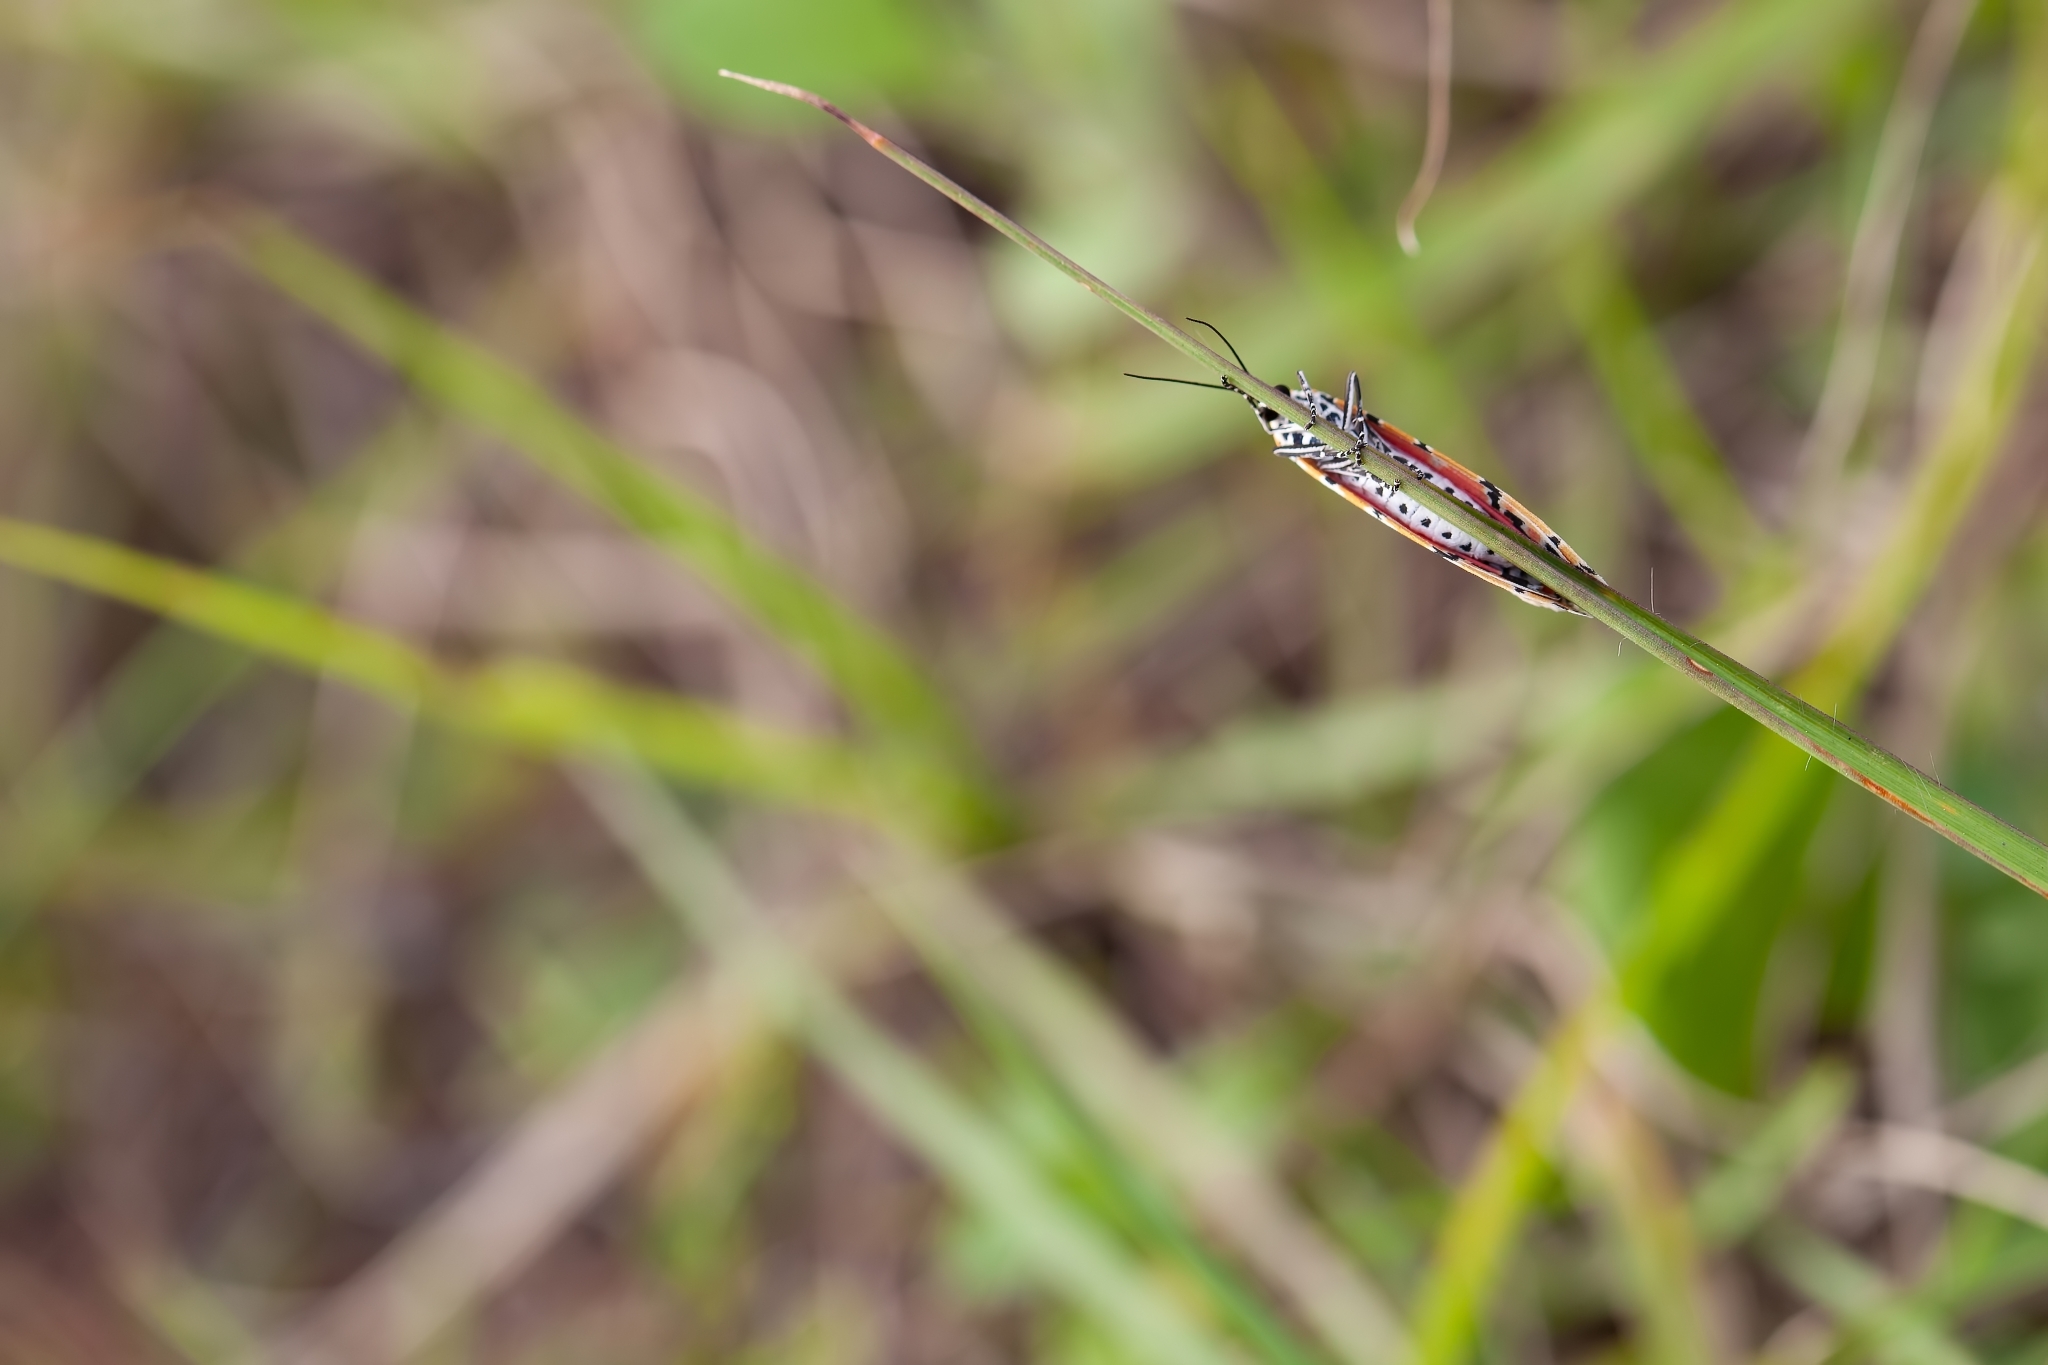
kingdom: Animalia
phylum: Arthropoda
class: Insecta
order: Lepidoptera
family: Erebidae
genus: Utetheisa
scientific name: Utetheisa ornatrix
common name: Beautiful utetheisa
